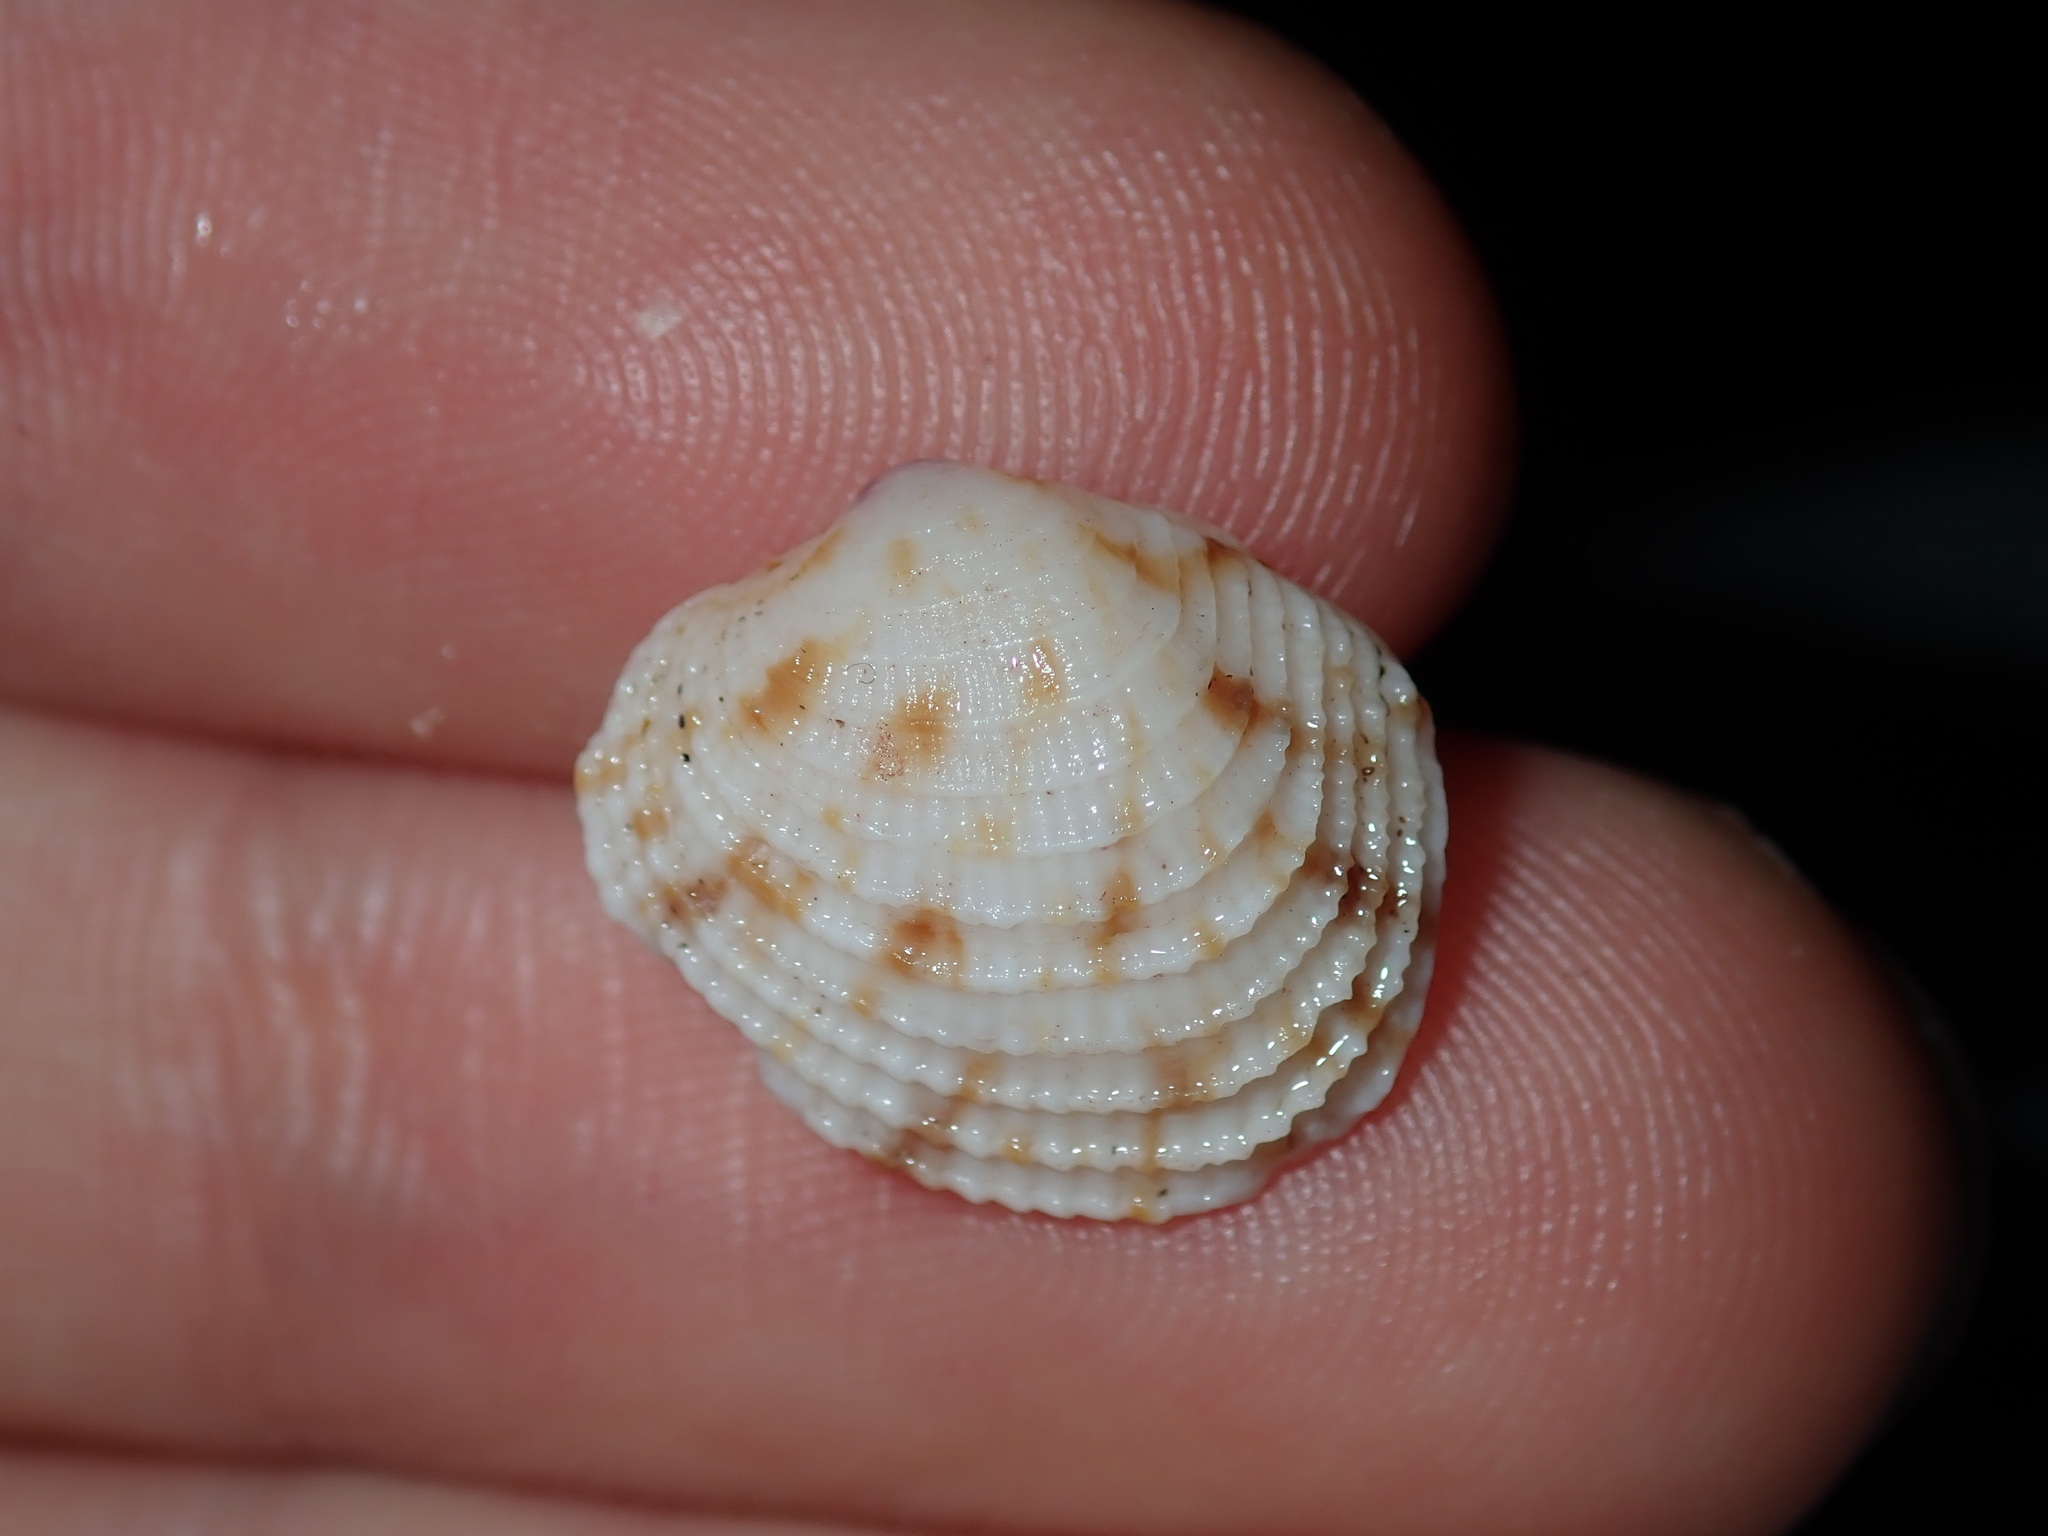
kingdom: Animalia
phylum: Mollusca
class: Bivalvia
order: Venerida
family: Veneridae
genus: Antigona
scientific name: Antigona persimilis
